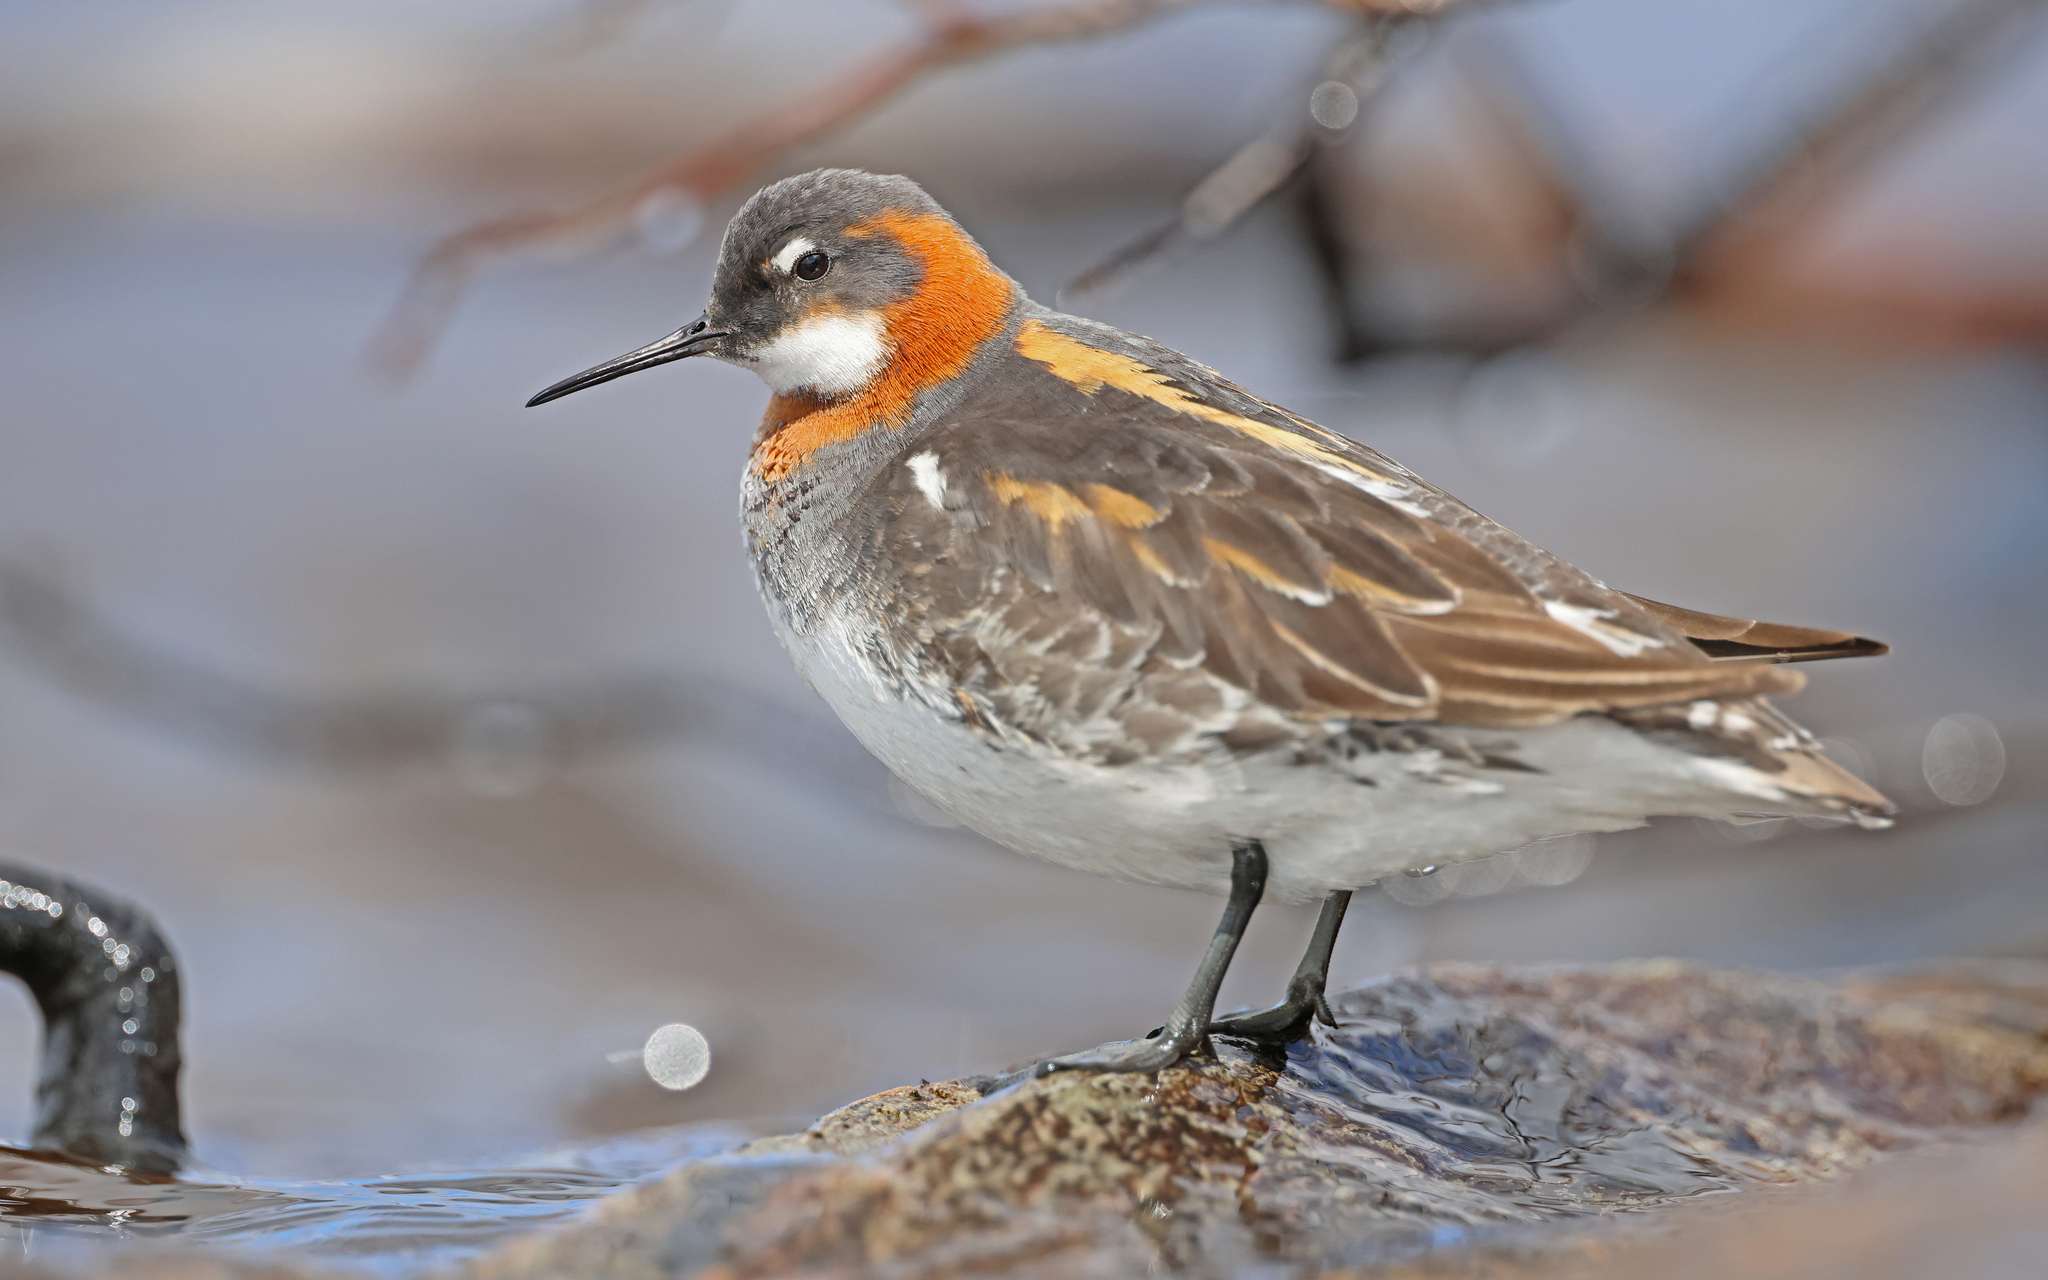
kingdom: Animalia
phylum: Chordata
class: Aves
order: Charadriiformes
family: Scolopacidae
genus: Phalaropus
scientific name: Phalaropus lobatus
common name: Red-necked phalarope
